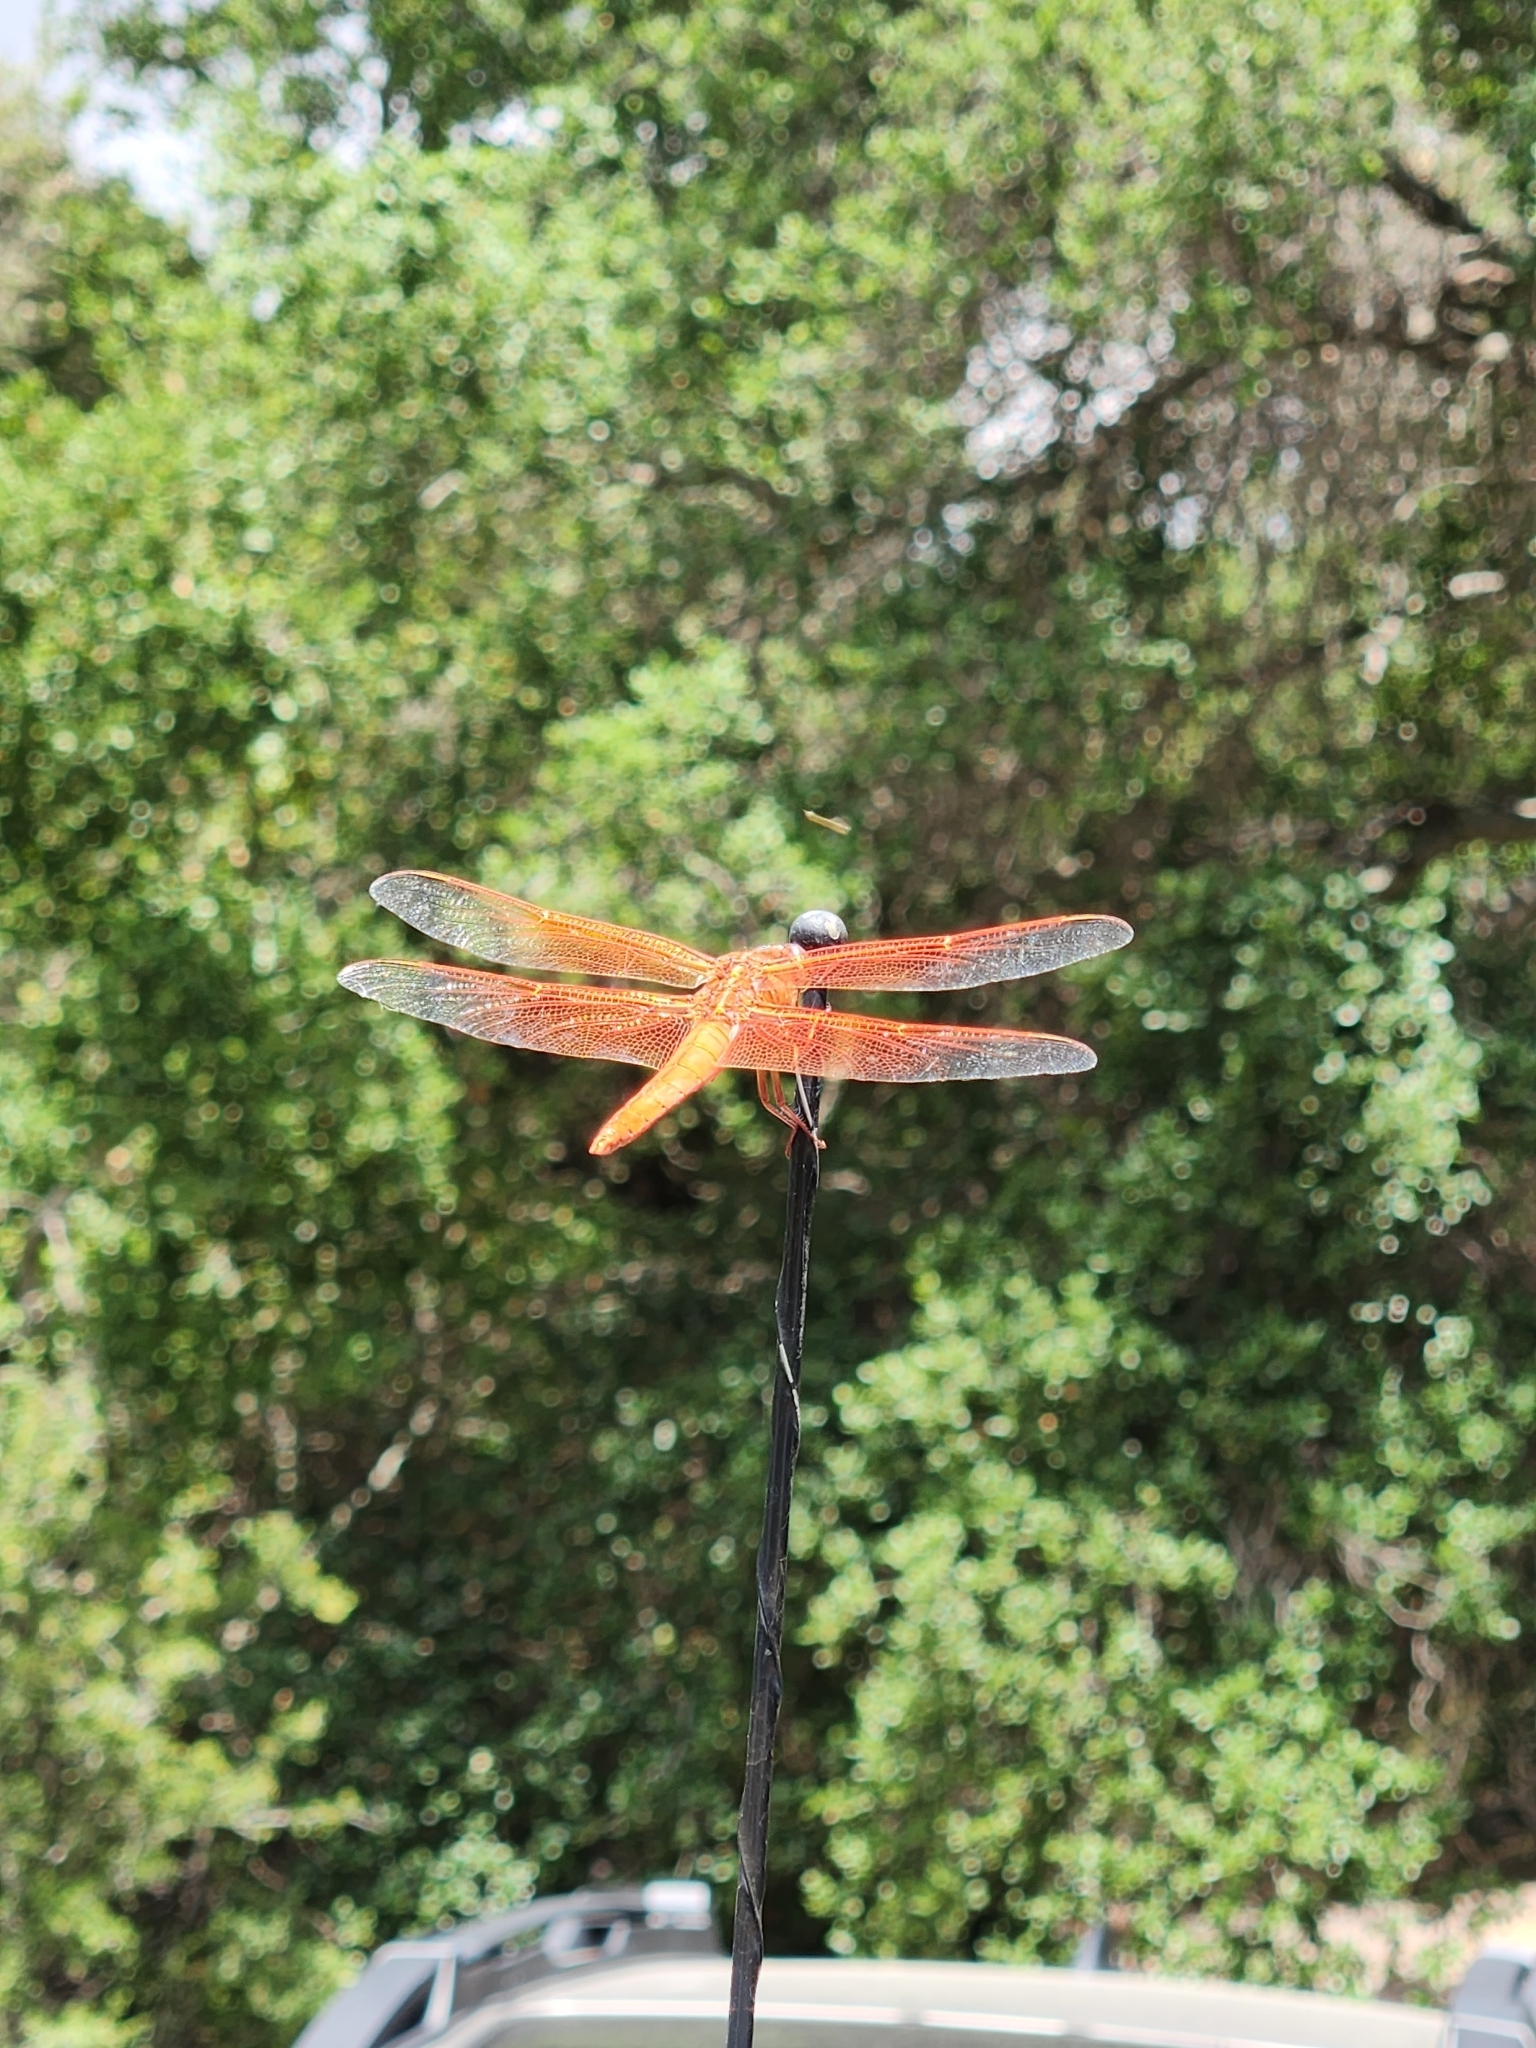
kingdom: Animalia
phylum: Arthropoda
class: Insecta
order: Odonata
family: Libellulidae
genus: Libellula
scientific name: Libellula saturata
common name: Flame skimmer
